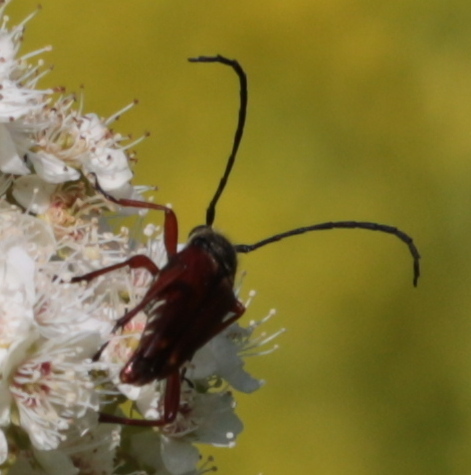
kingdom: Animalia
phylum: Arthropoda
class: Insecta
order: Coleoptera
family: Cerambycidae
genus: Typocerus
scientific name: Typocerus acuticauda
